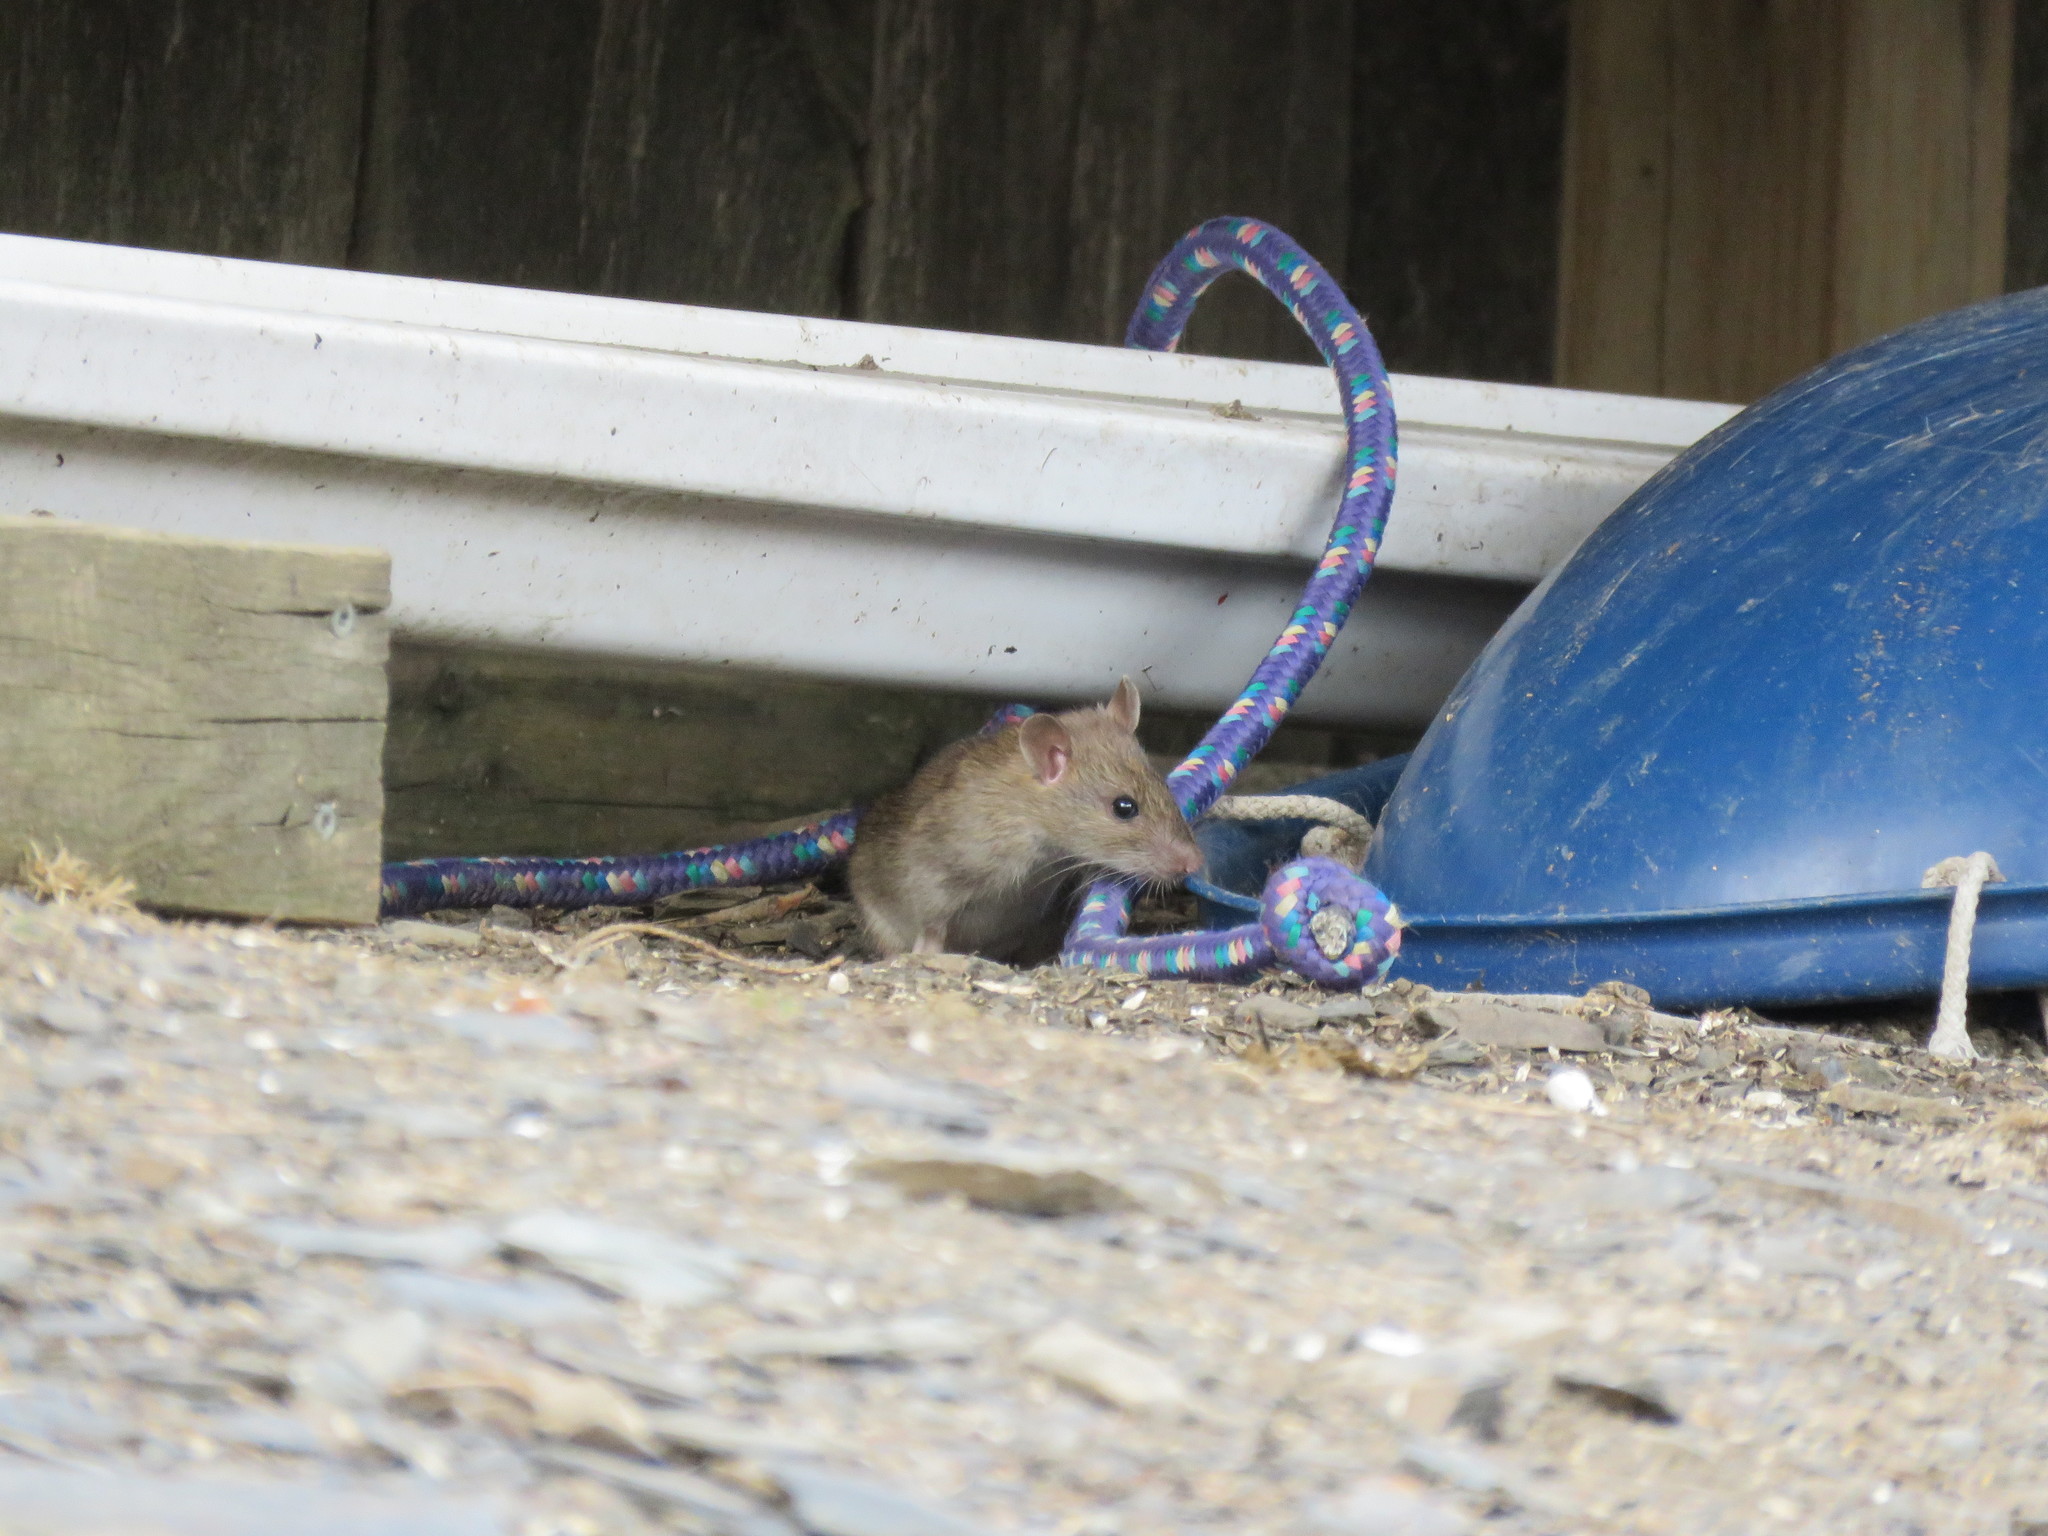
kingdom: Animalia
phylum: Chordata
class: Mammalia
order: Rodentia
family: Muridae
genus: Rattus
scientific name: Rattus norvegicus
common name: Brown rat
